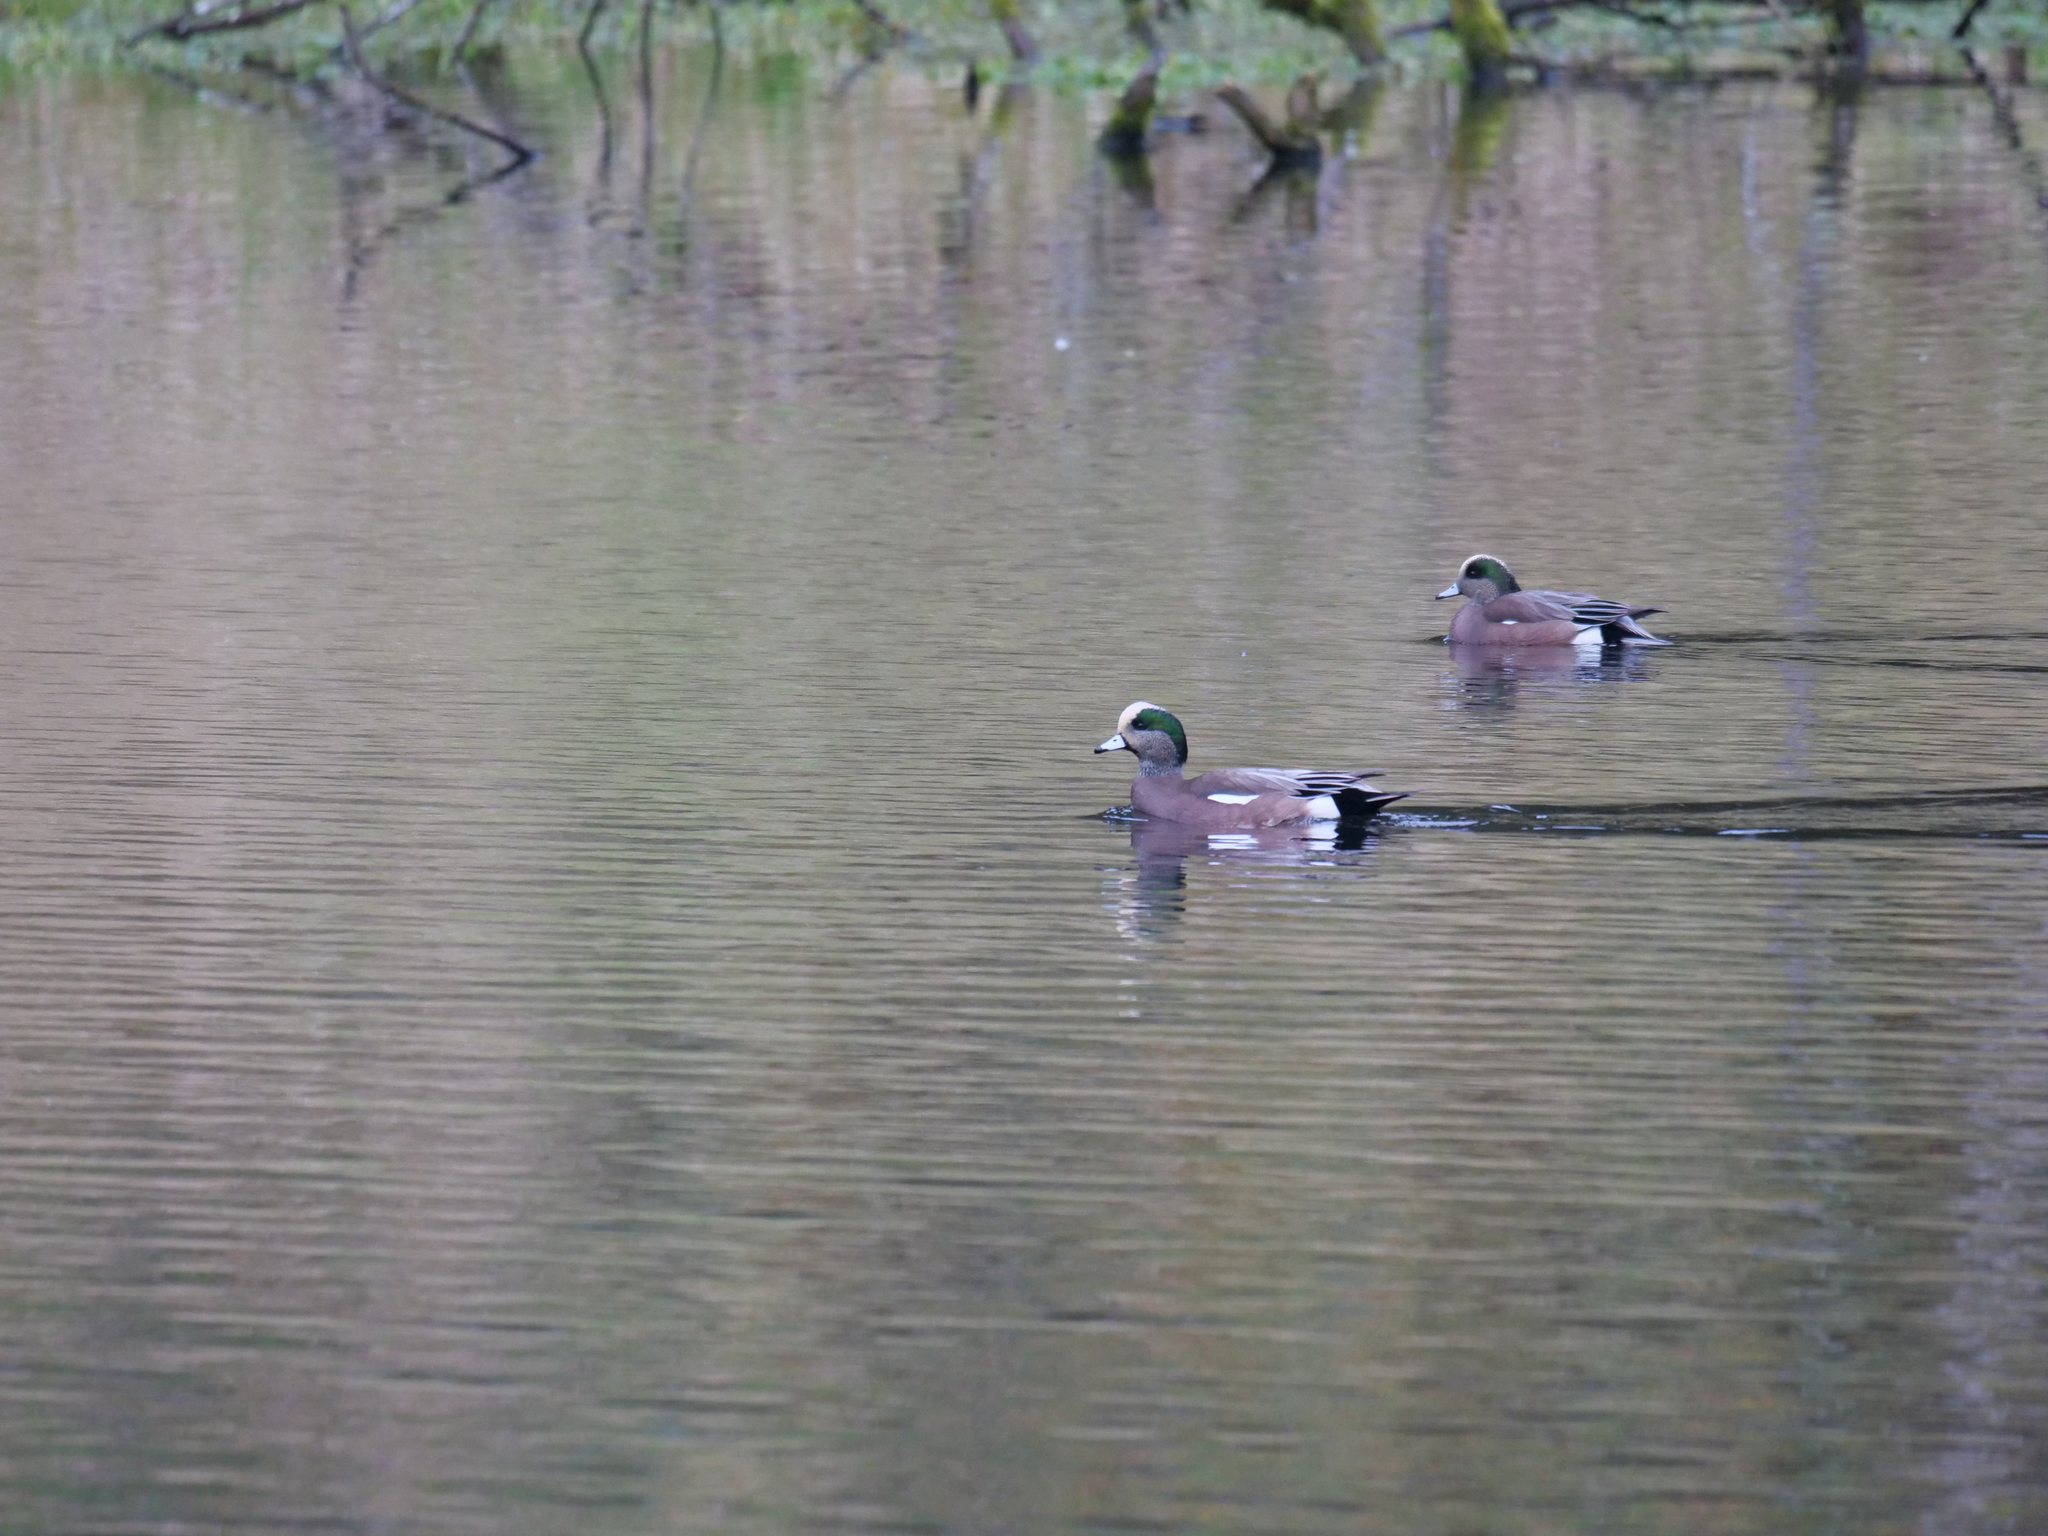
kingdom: Animalia
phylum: Chordata
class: Aves
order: Anseriformes
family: Anatidae
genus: Mareca
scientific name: Mareca americana
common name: American wigeon
